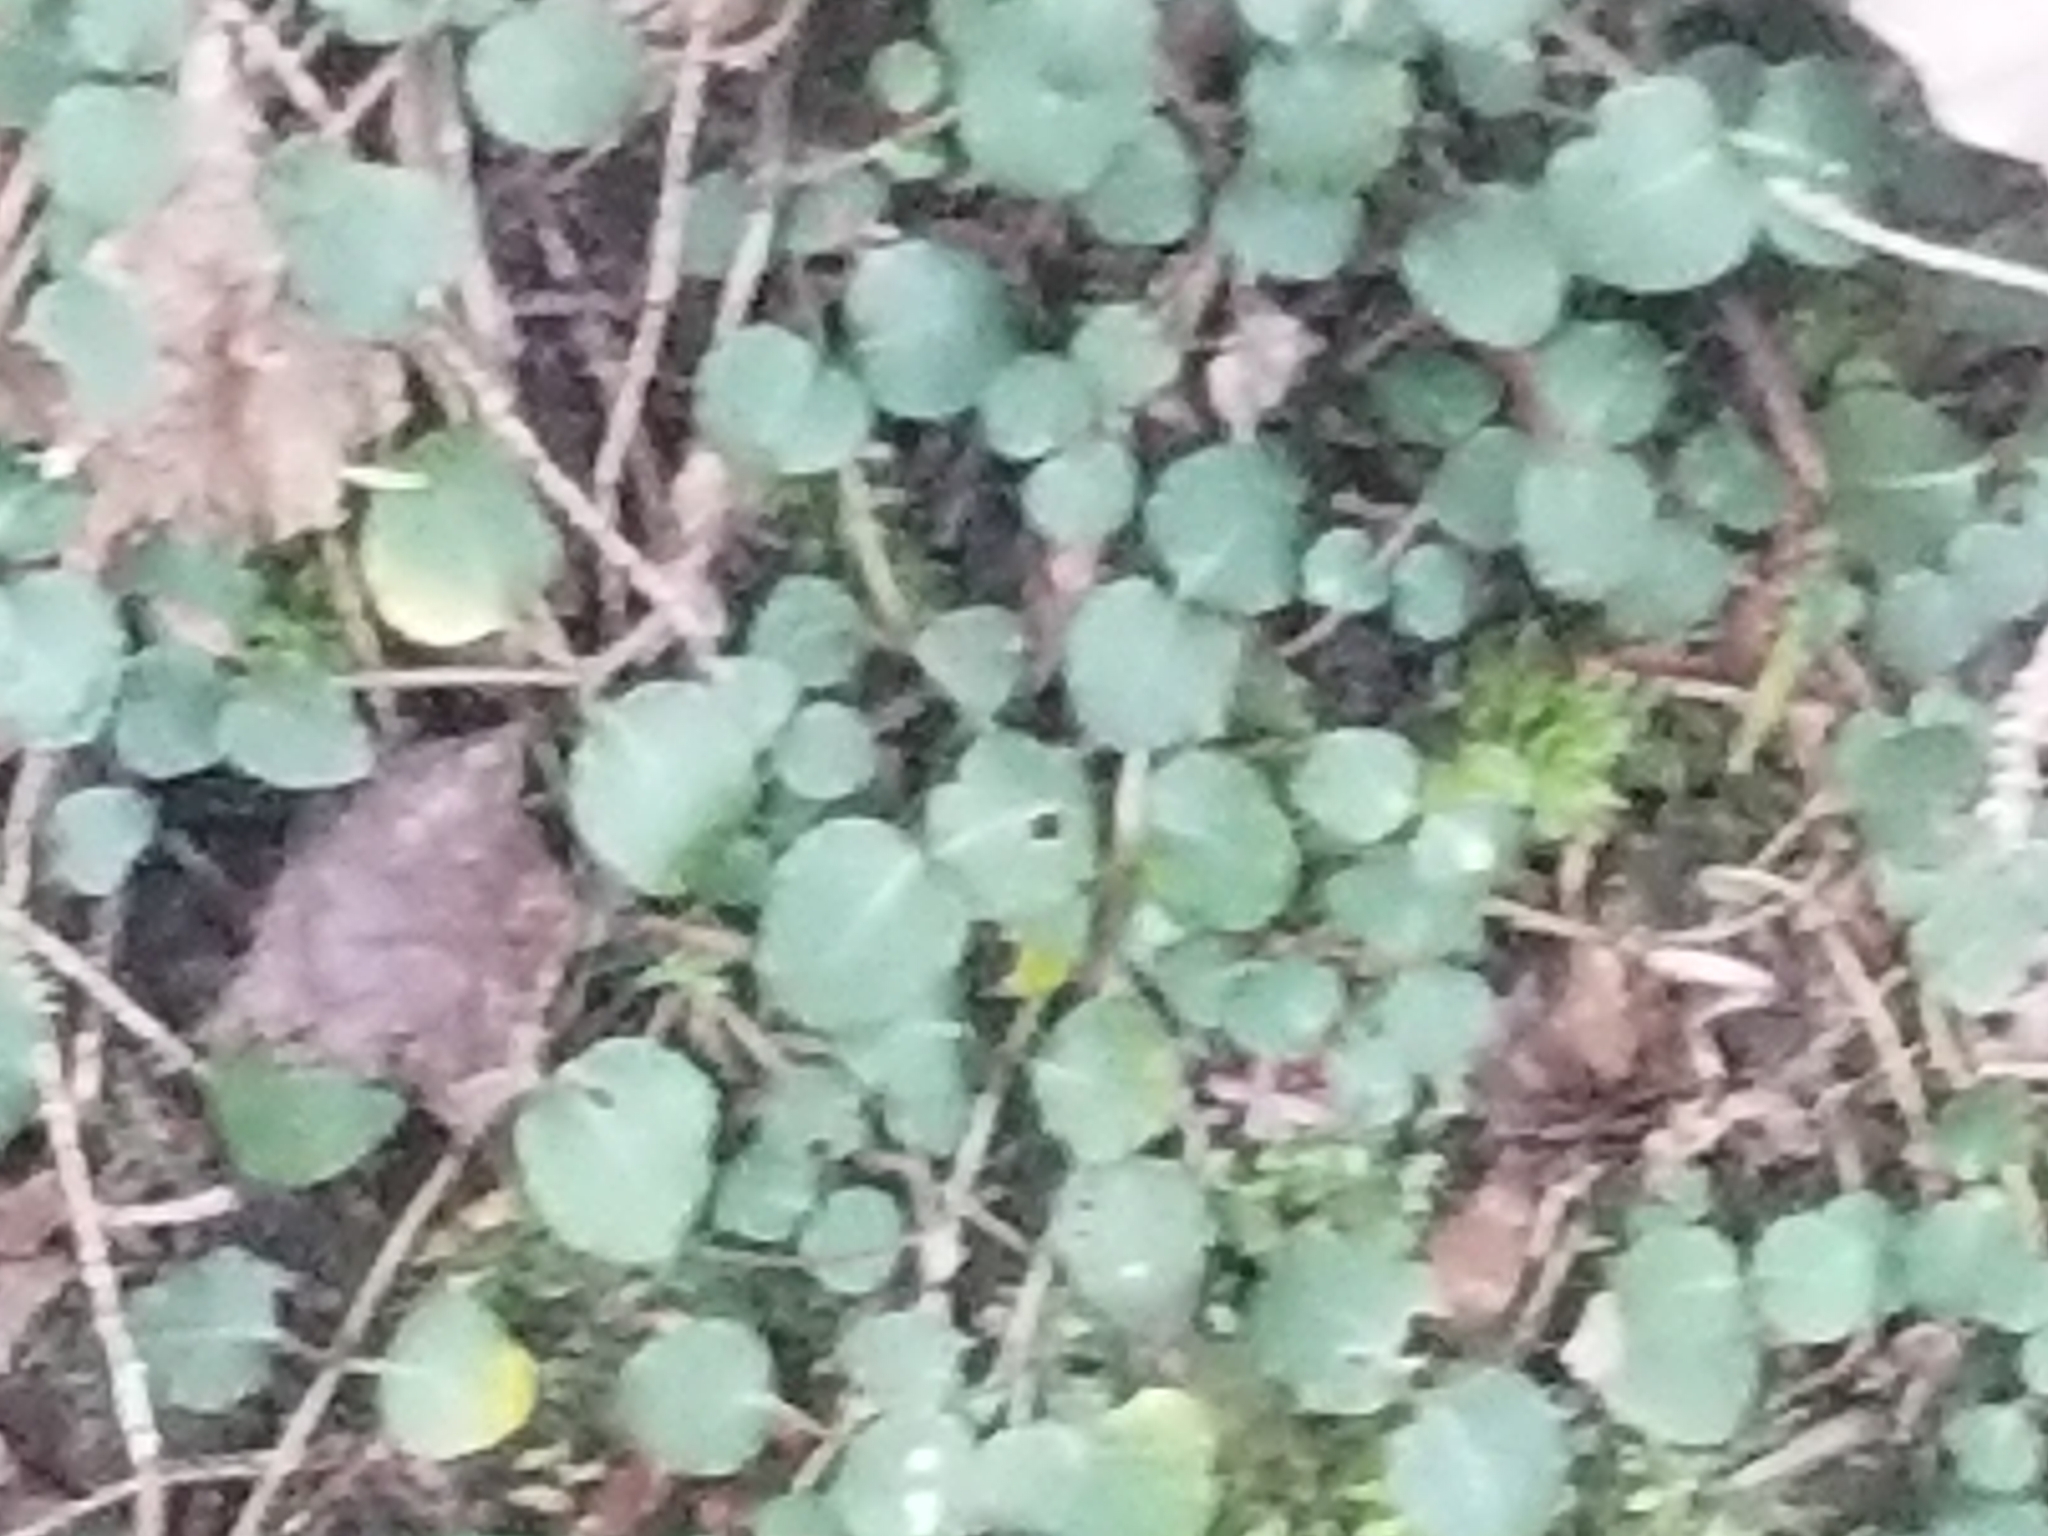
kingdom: Plantae
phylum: Tracheophyta
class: Magnoliopsida
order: Gentianales
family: Rubiaceae
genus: Mitchella
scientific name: Mitchella repens
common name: Partridge-berry
